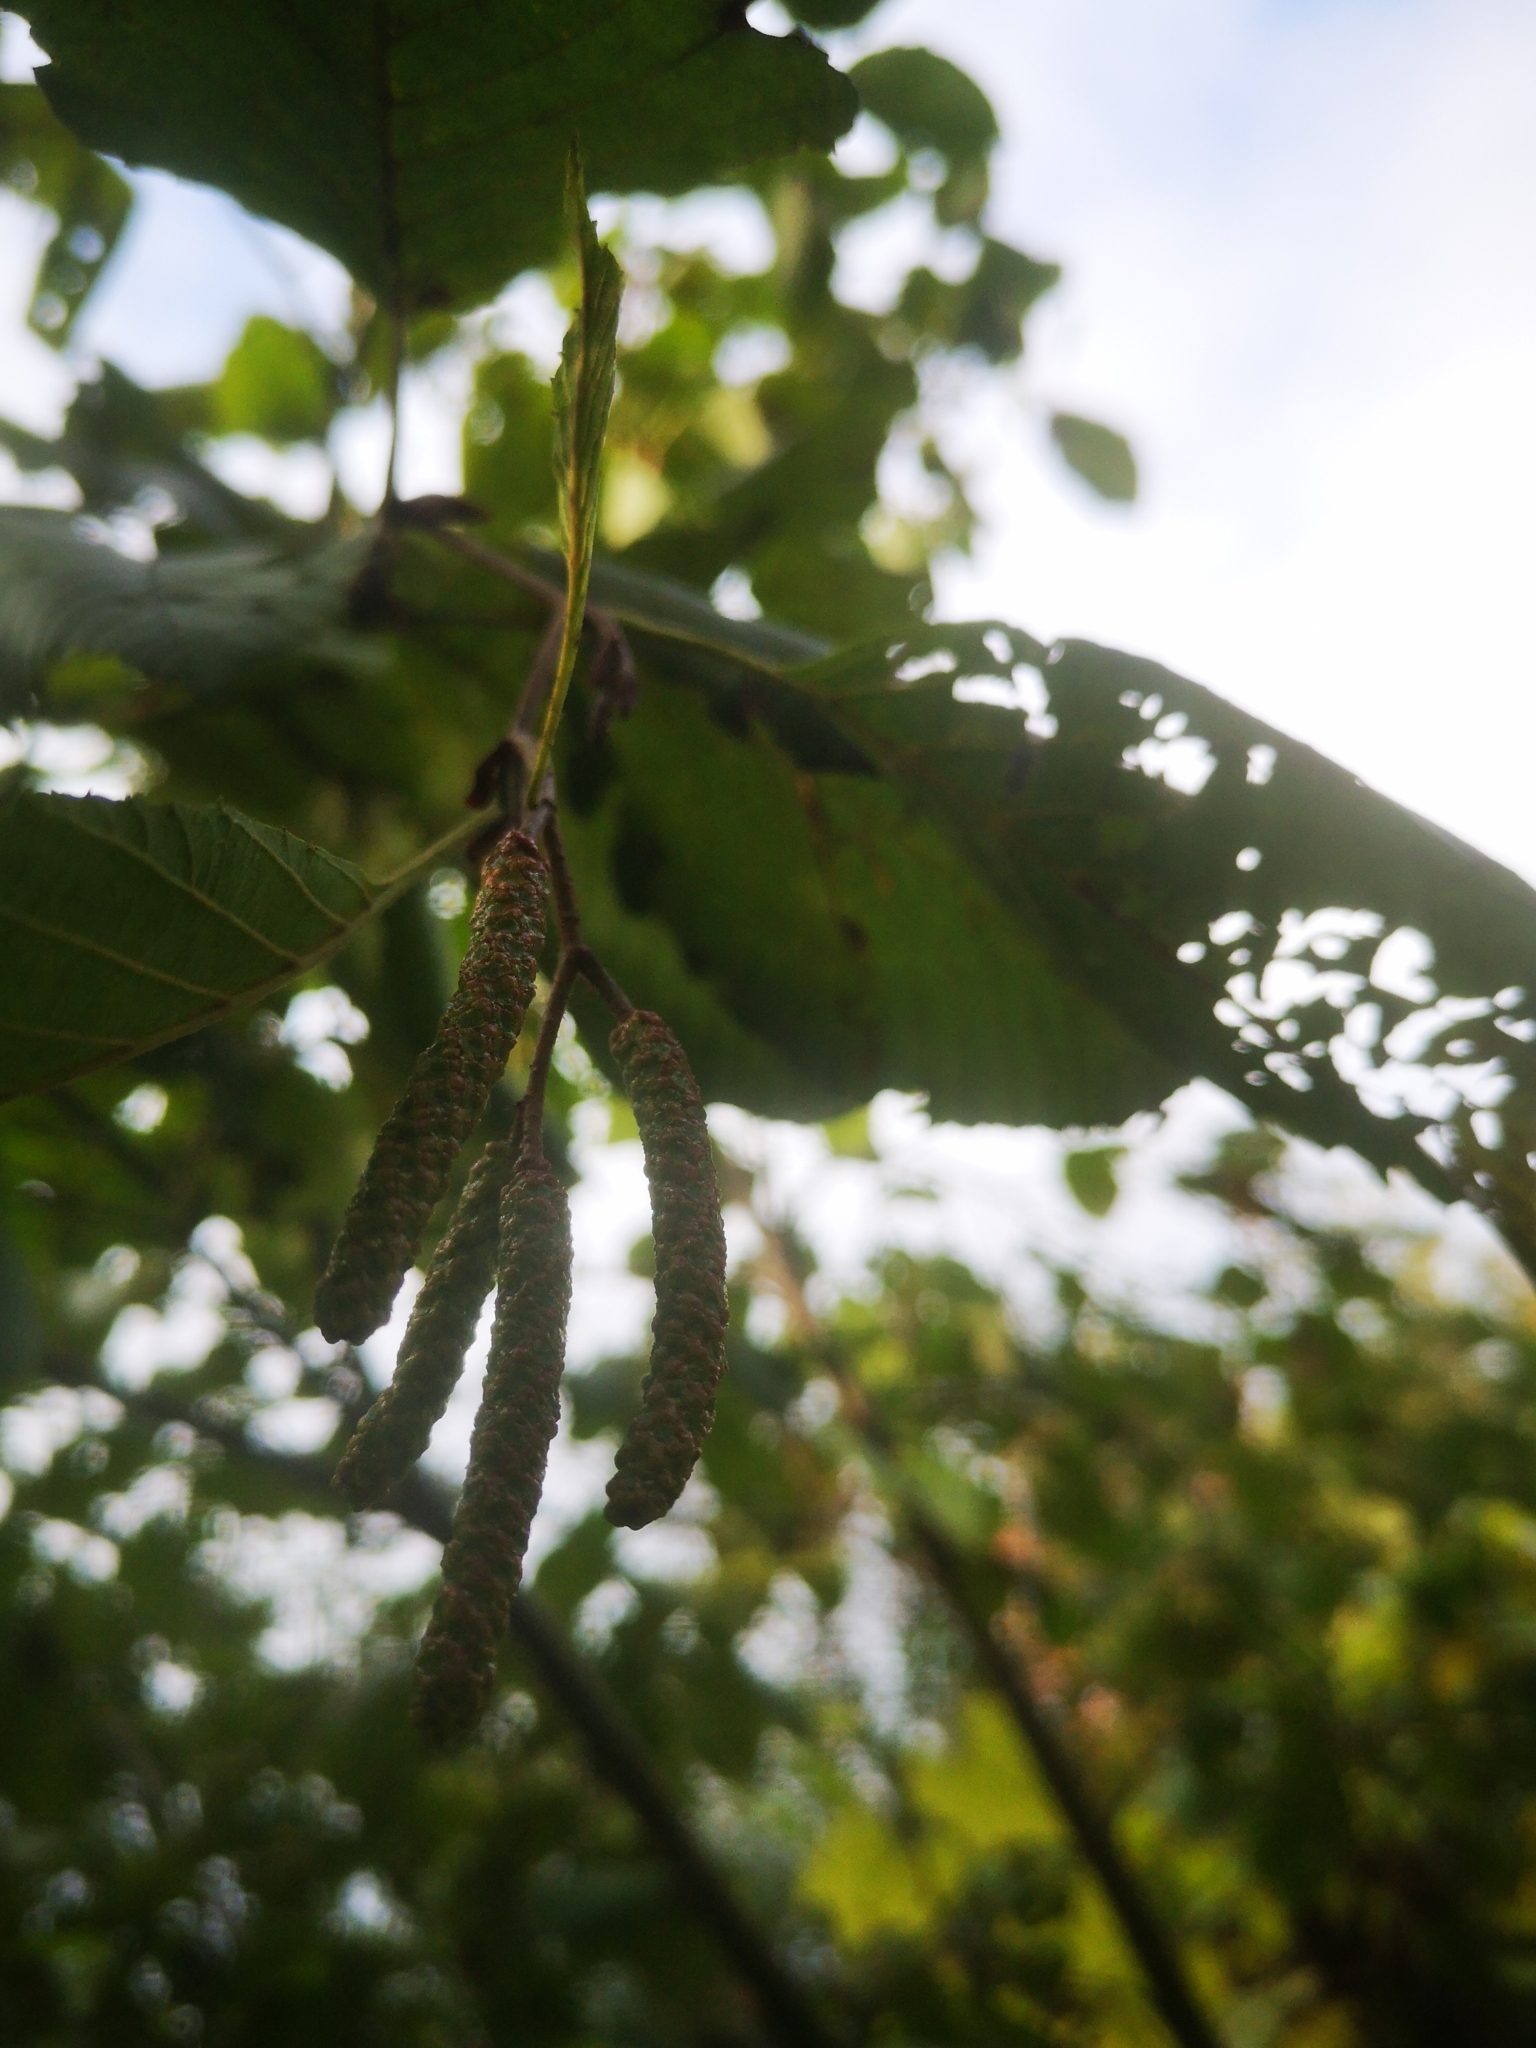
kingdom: Plantae
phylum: Tracheophyta
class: Magnoliopsida
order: Fagales
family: Betulaceae
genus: Alnus
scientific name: Alnus incana
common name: Grey alder
